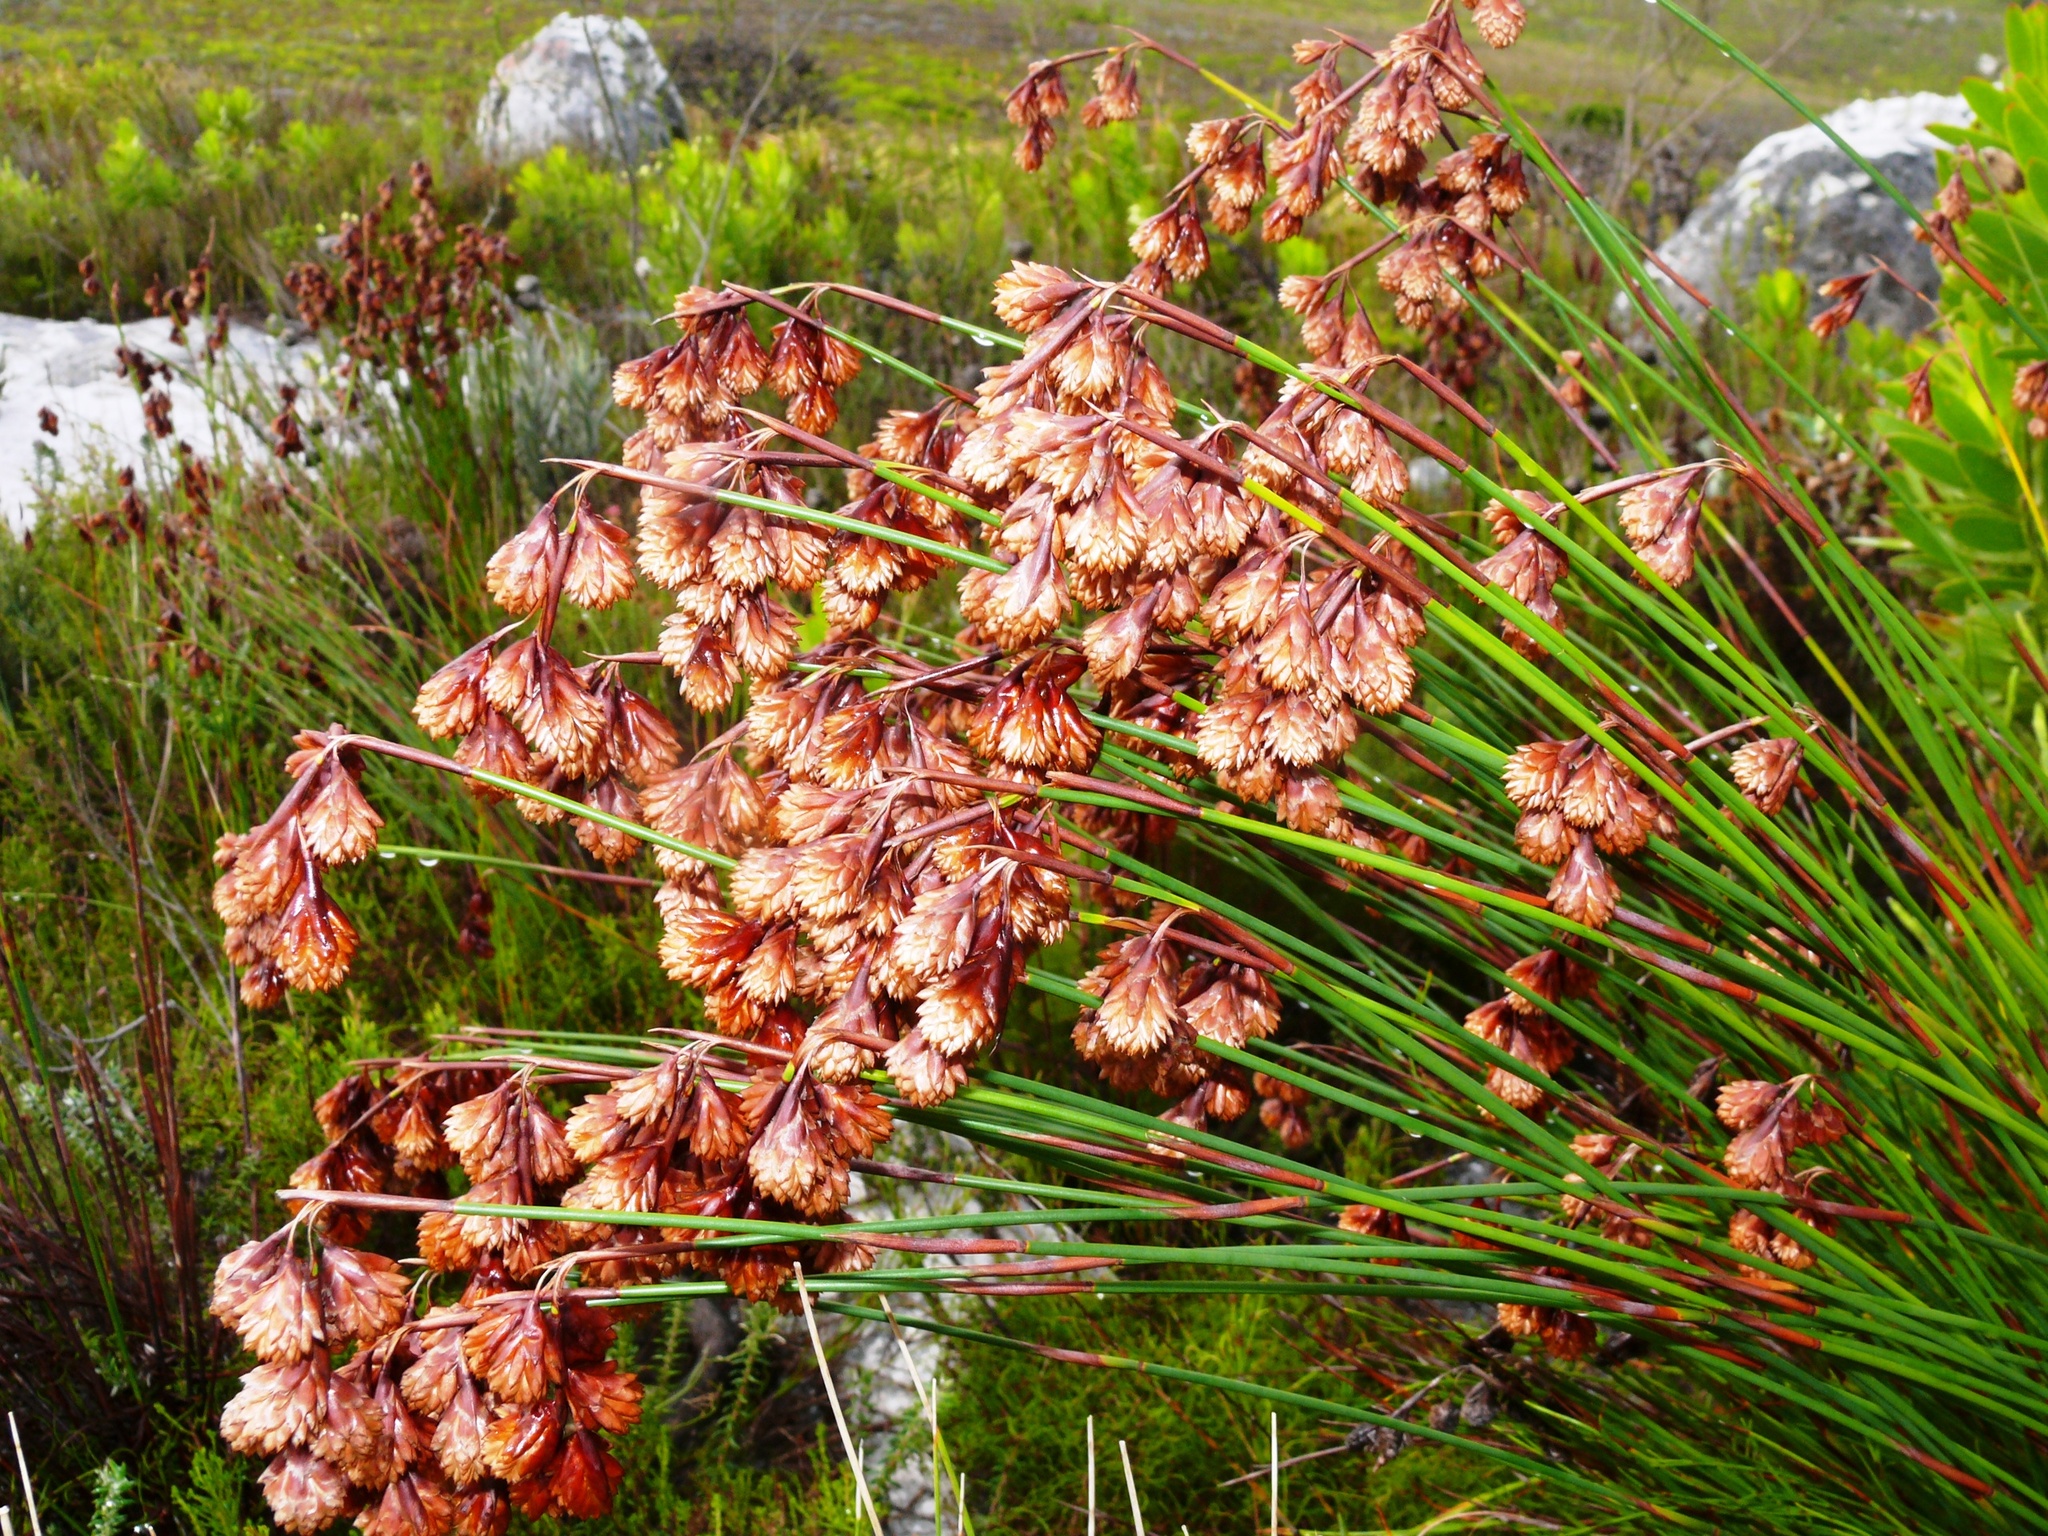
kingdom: Plantae
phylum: Tracheophyta
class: Liliopsida
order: Poales
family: Restionaceae
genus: Staberoha
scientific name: Staberoha cernua
